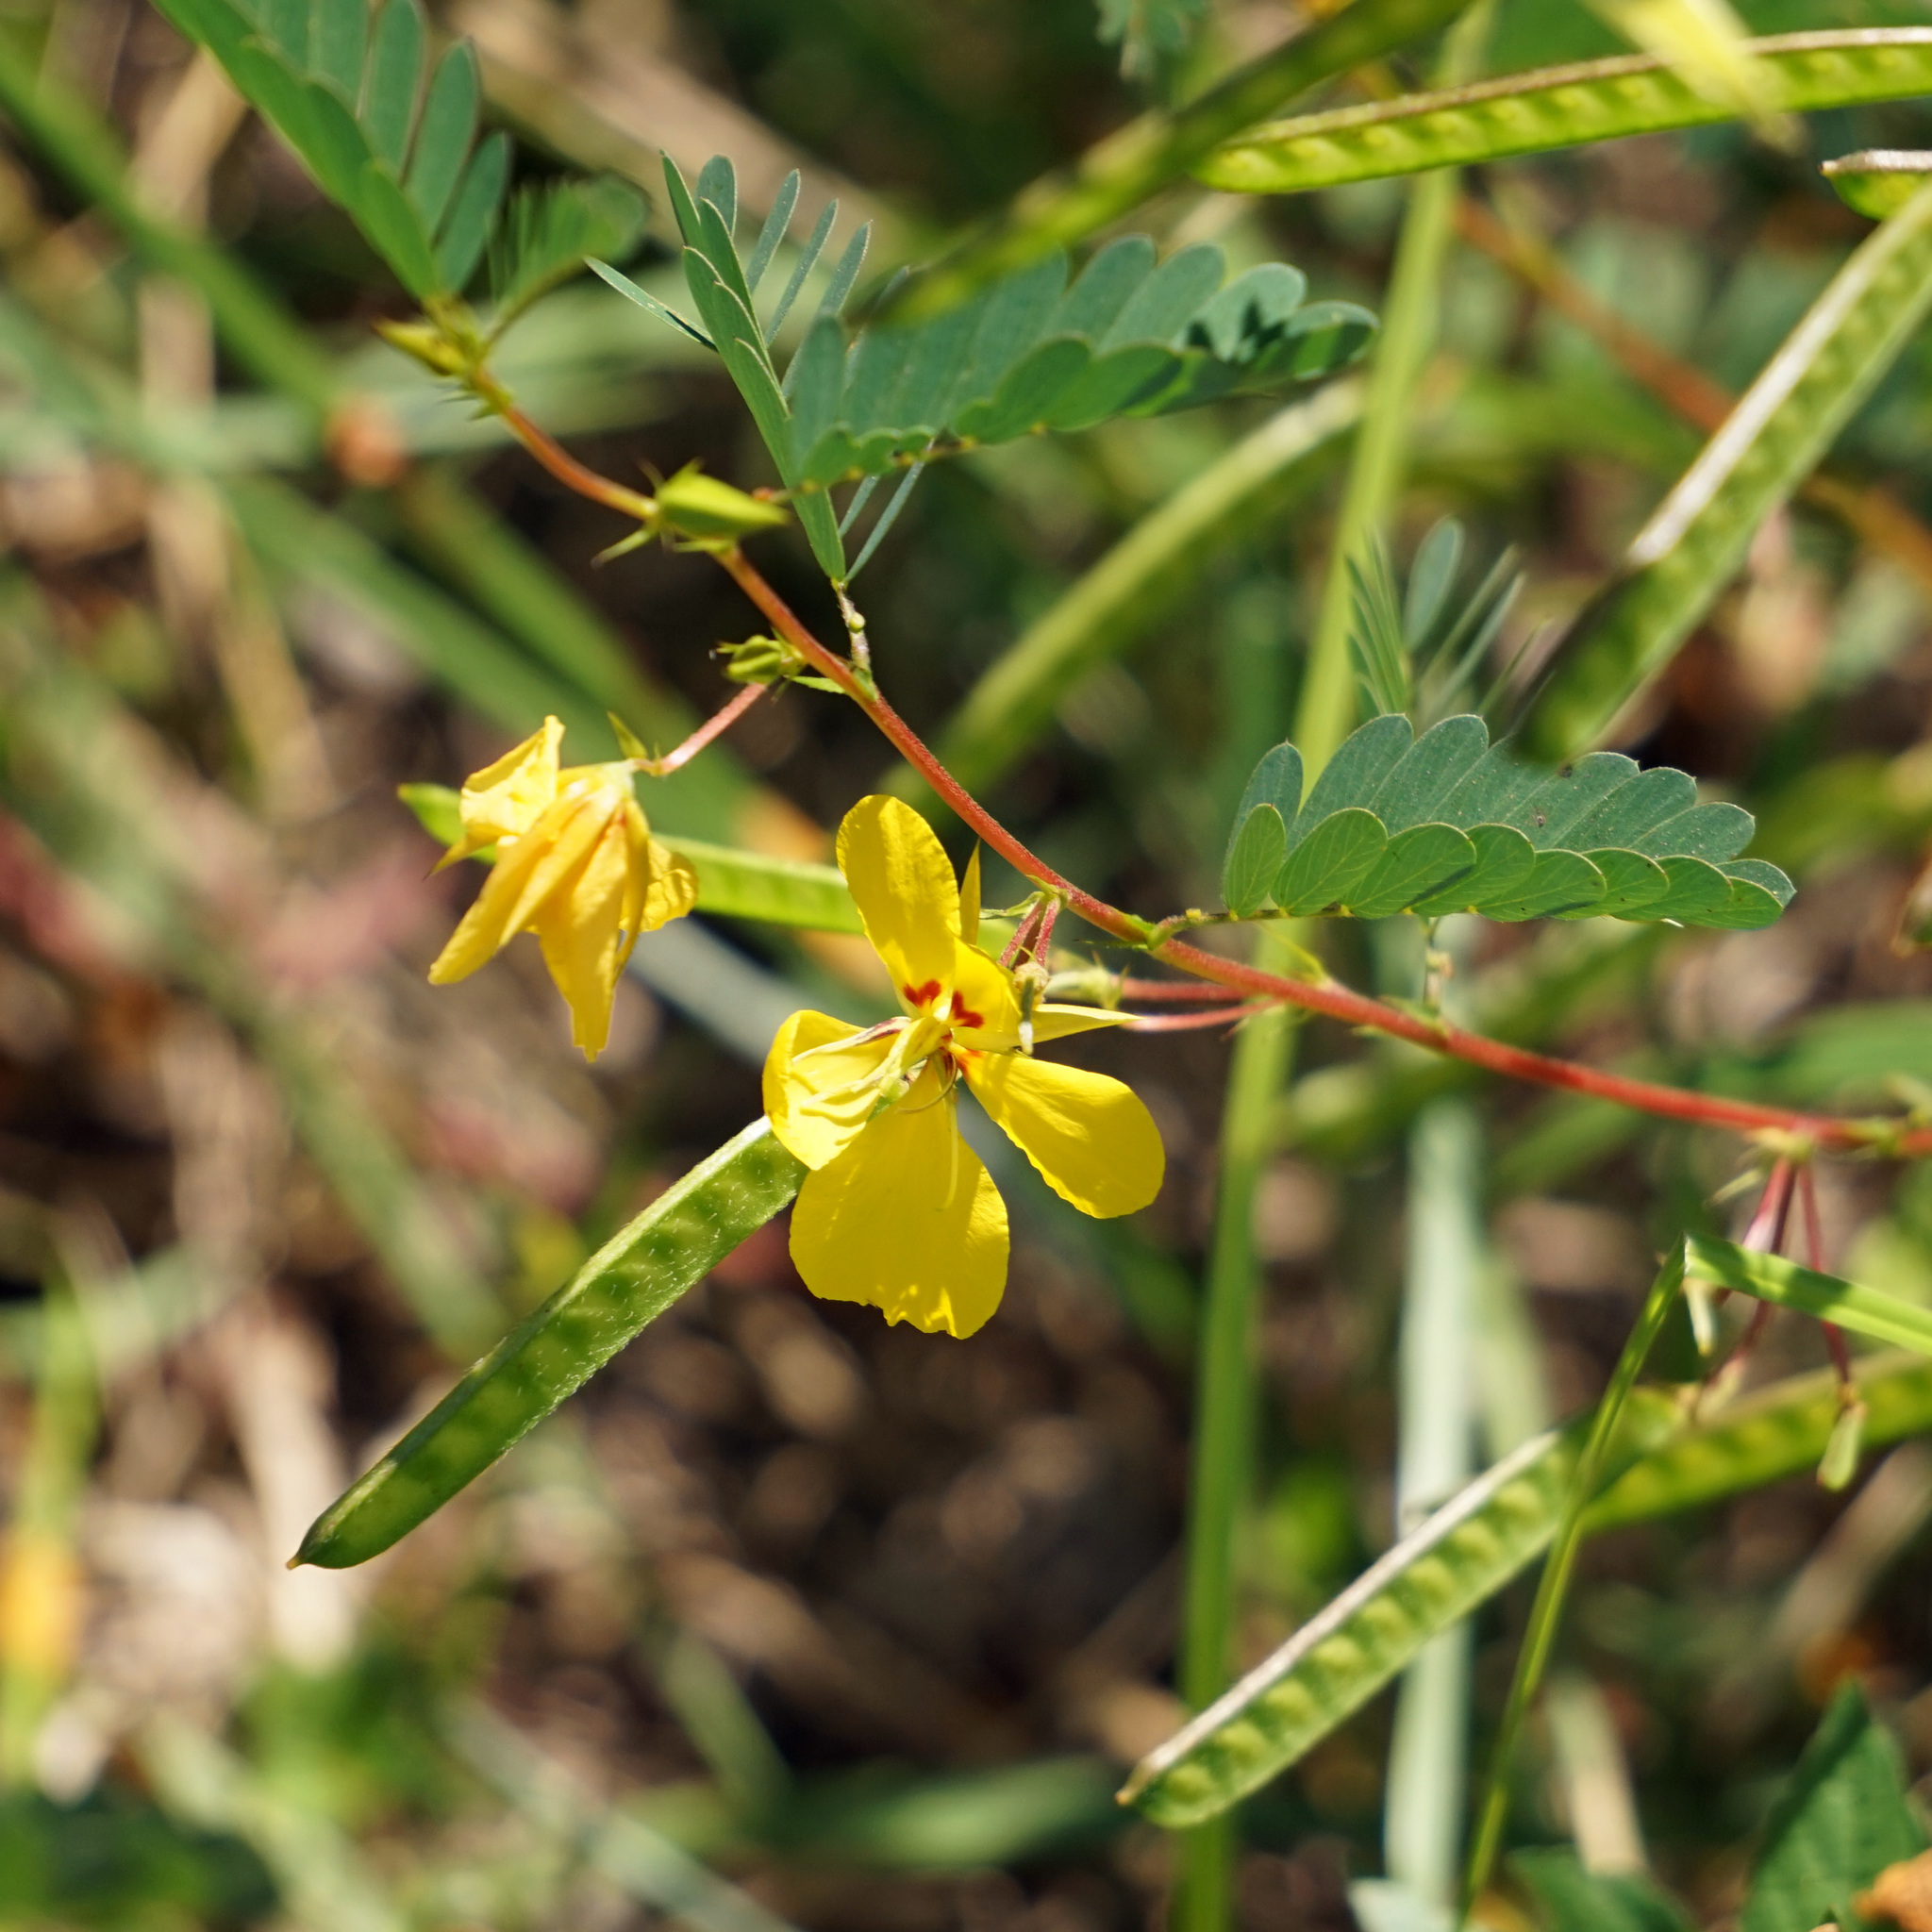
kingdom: Plantae
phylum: Tracheophyta
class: Magnoliopsida
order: Fabales
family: Fabaceae
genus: Chamaecrista
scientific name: Chamaecrista fasciculata
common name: Golden cassia
